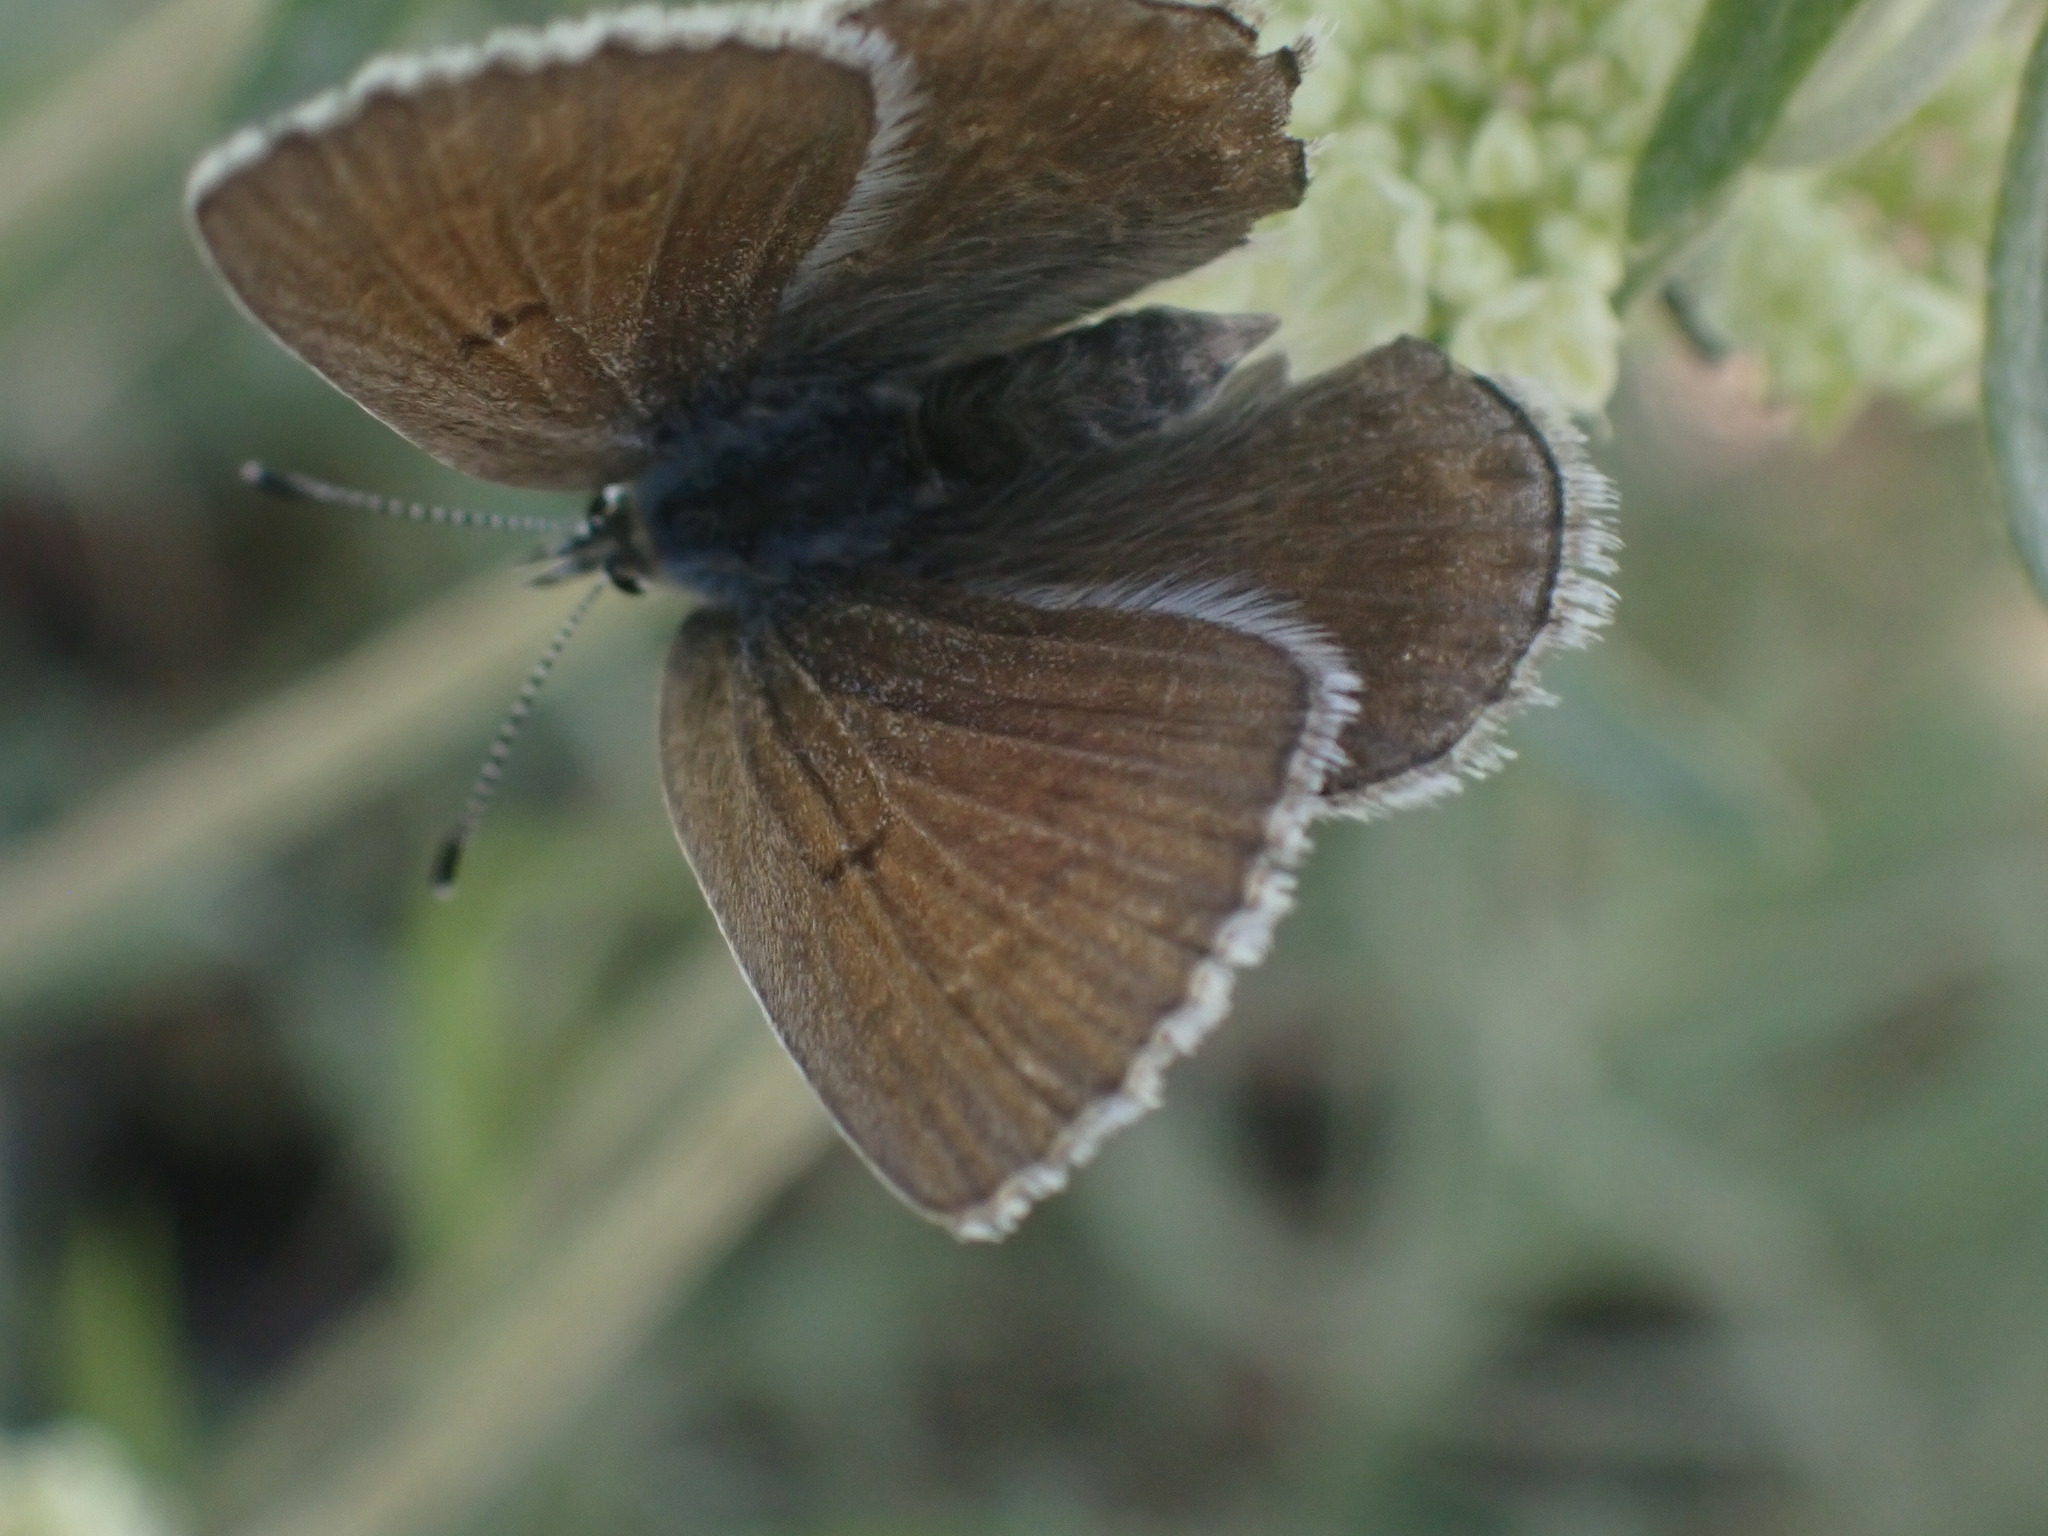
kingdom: Animalia
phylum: Arthropoda
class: Insecta
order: Lepidoptera
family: Lycaenidae
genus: Icaricia
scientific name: Icaricia icarioides
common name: Boisduval's blue
